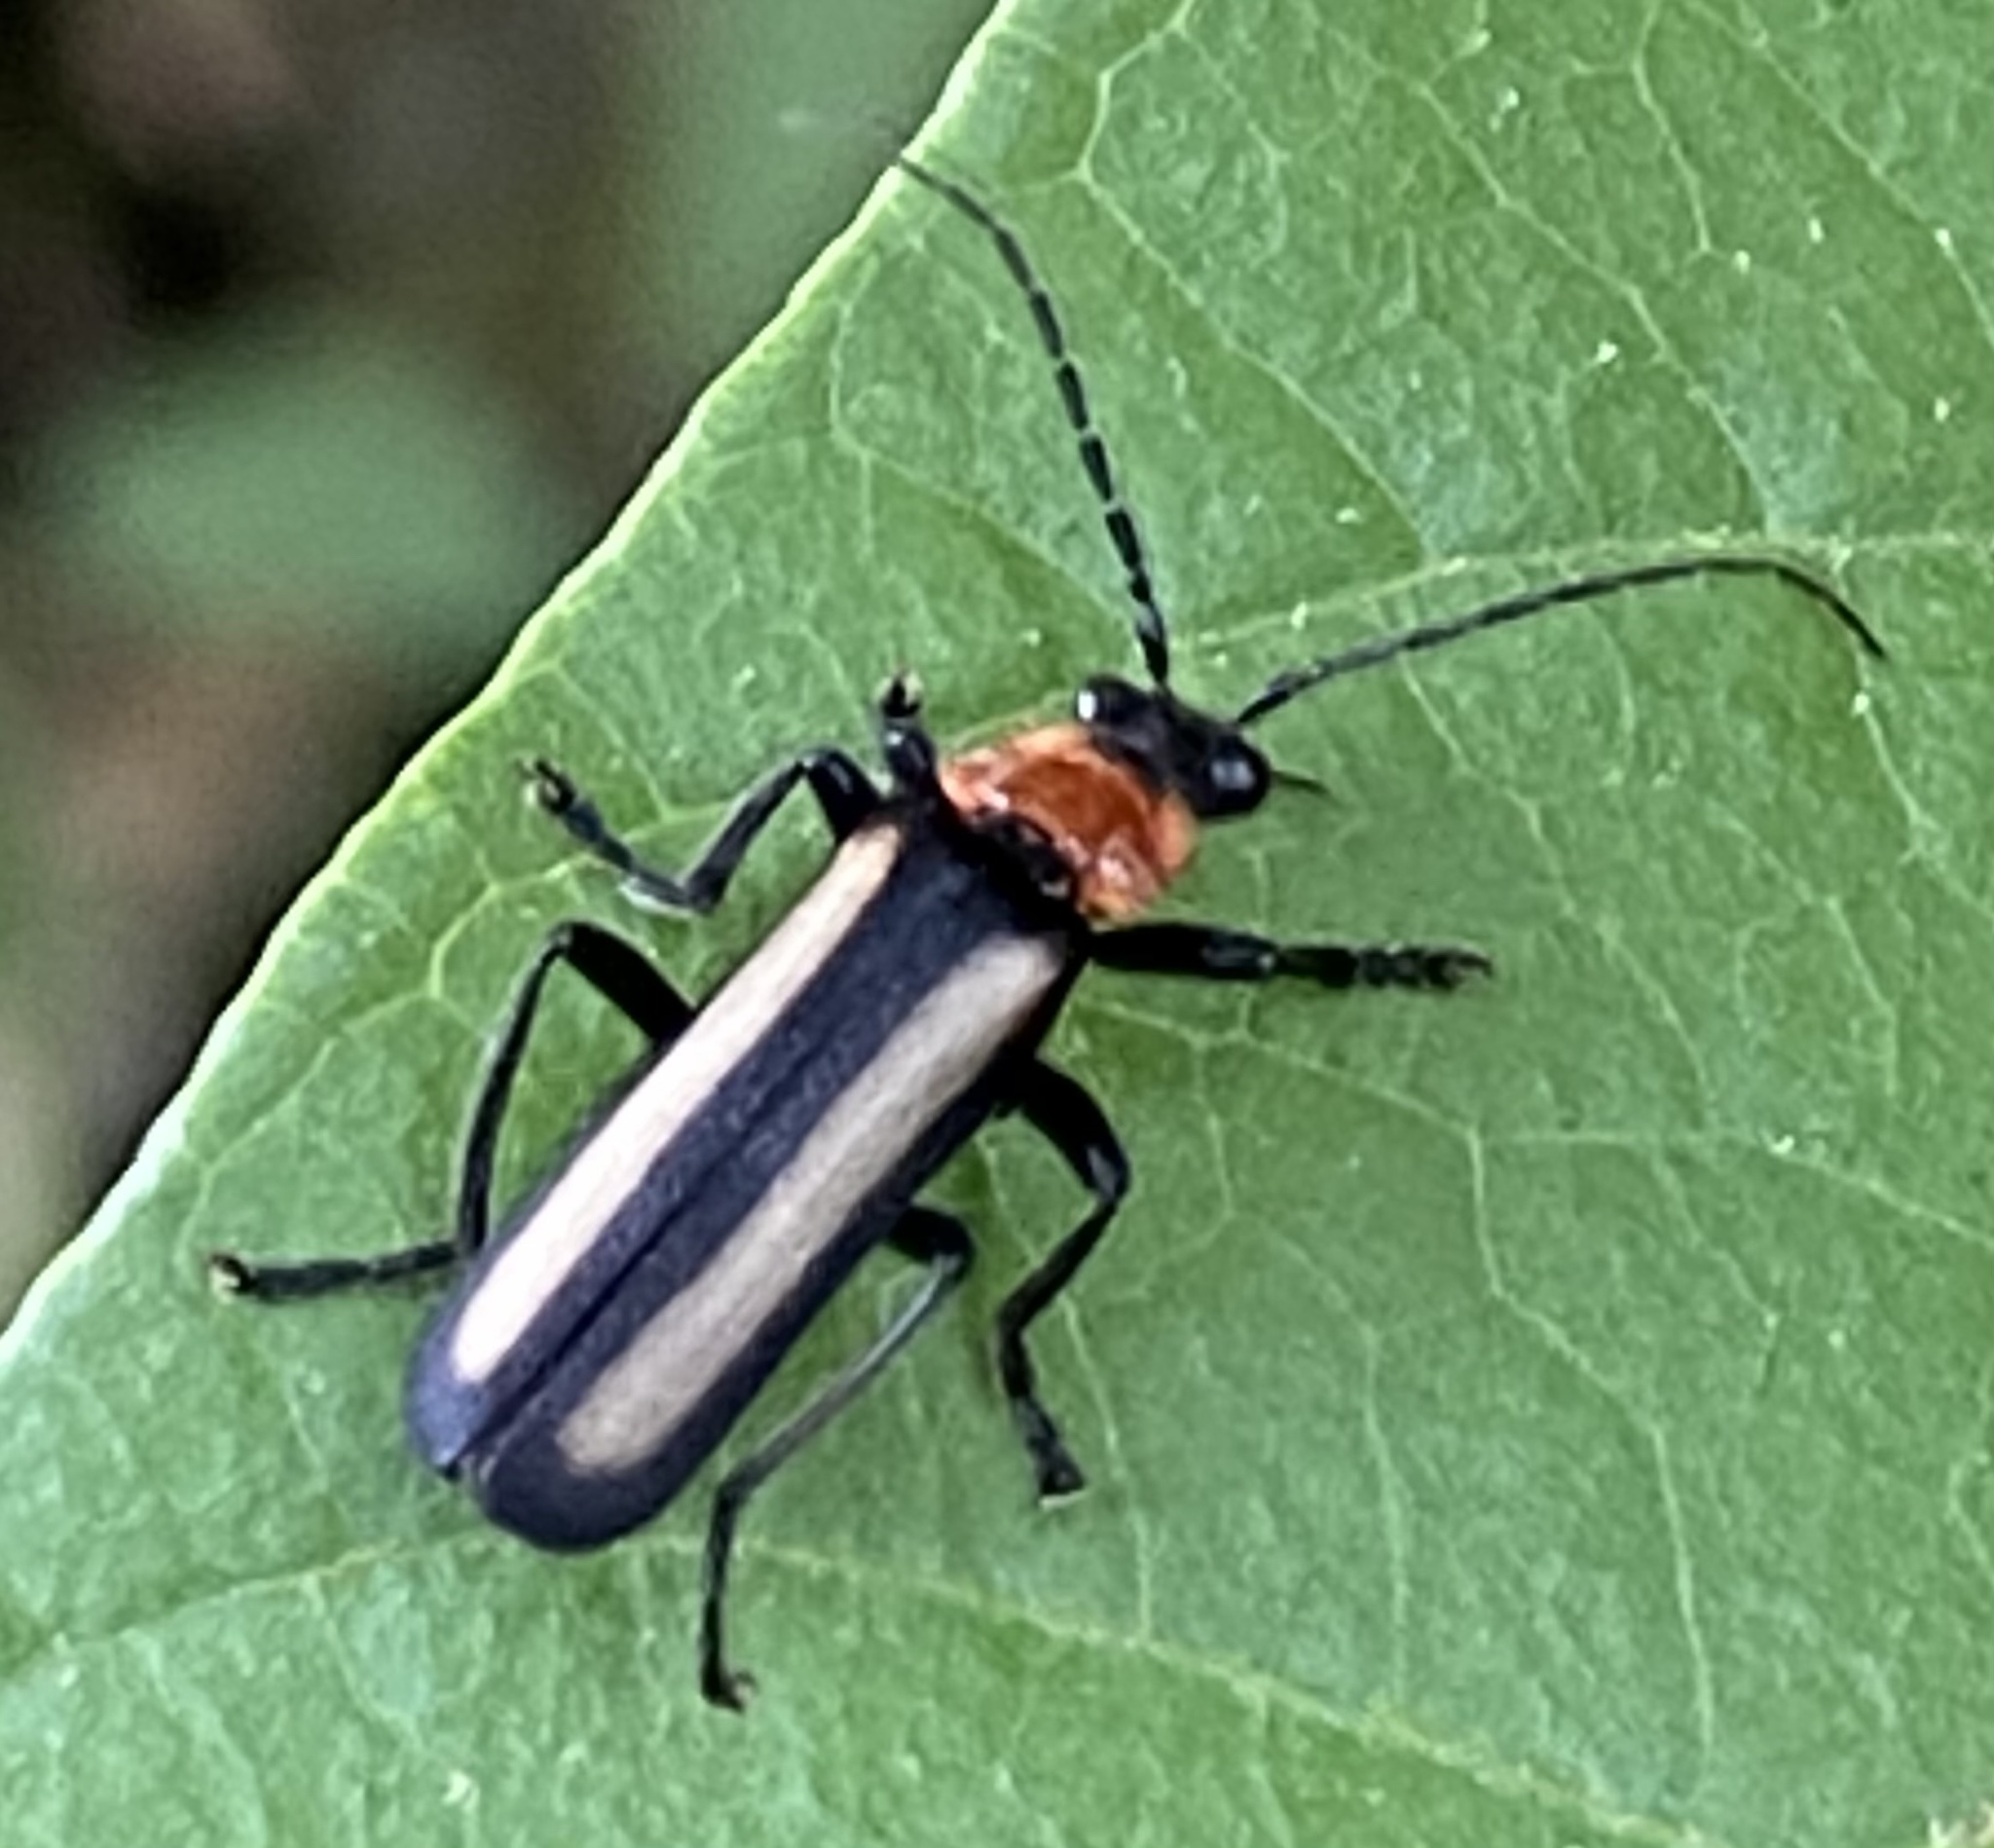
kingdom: Animalia
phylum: Arthropoda
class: Insecta
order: Coleoptera
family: Cantharidae
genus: Discodon
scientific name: Discodon
